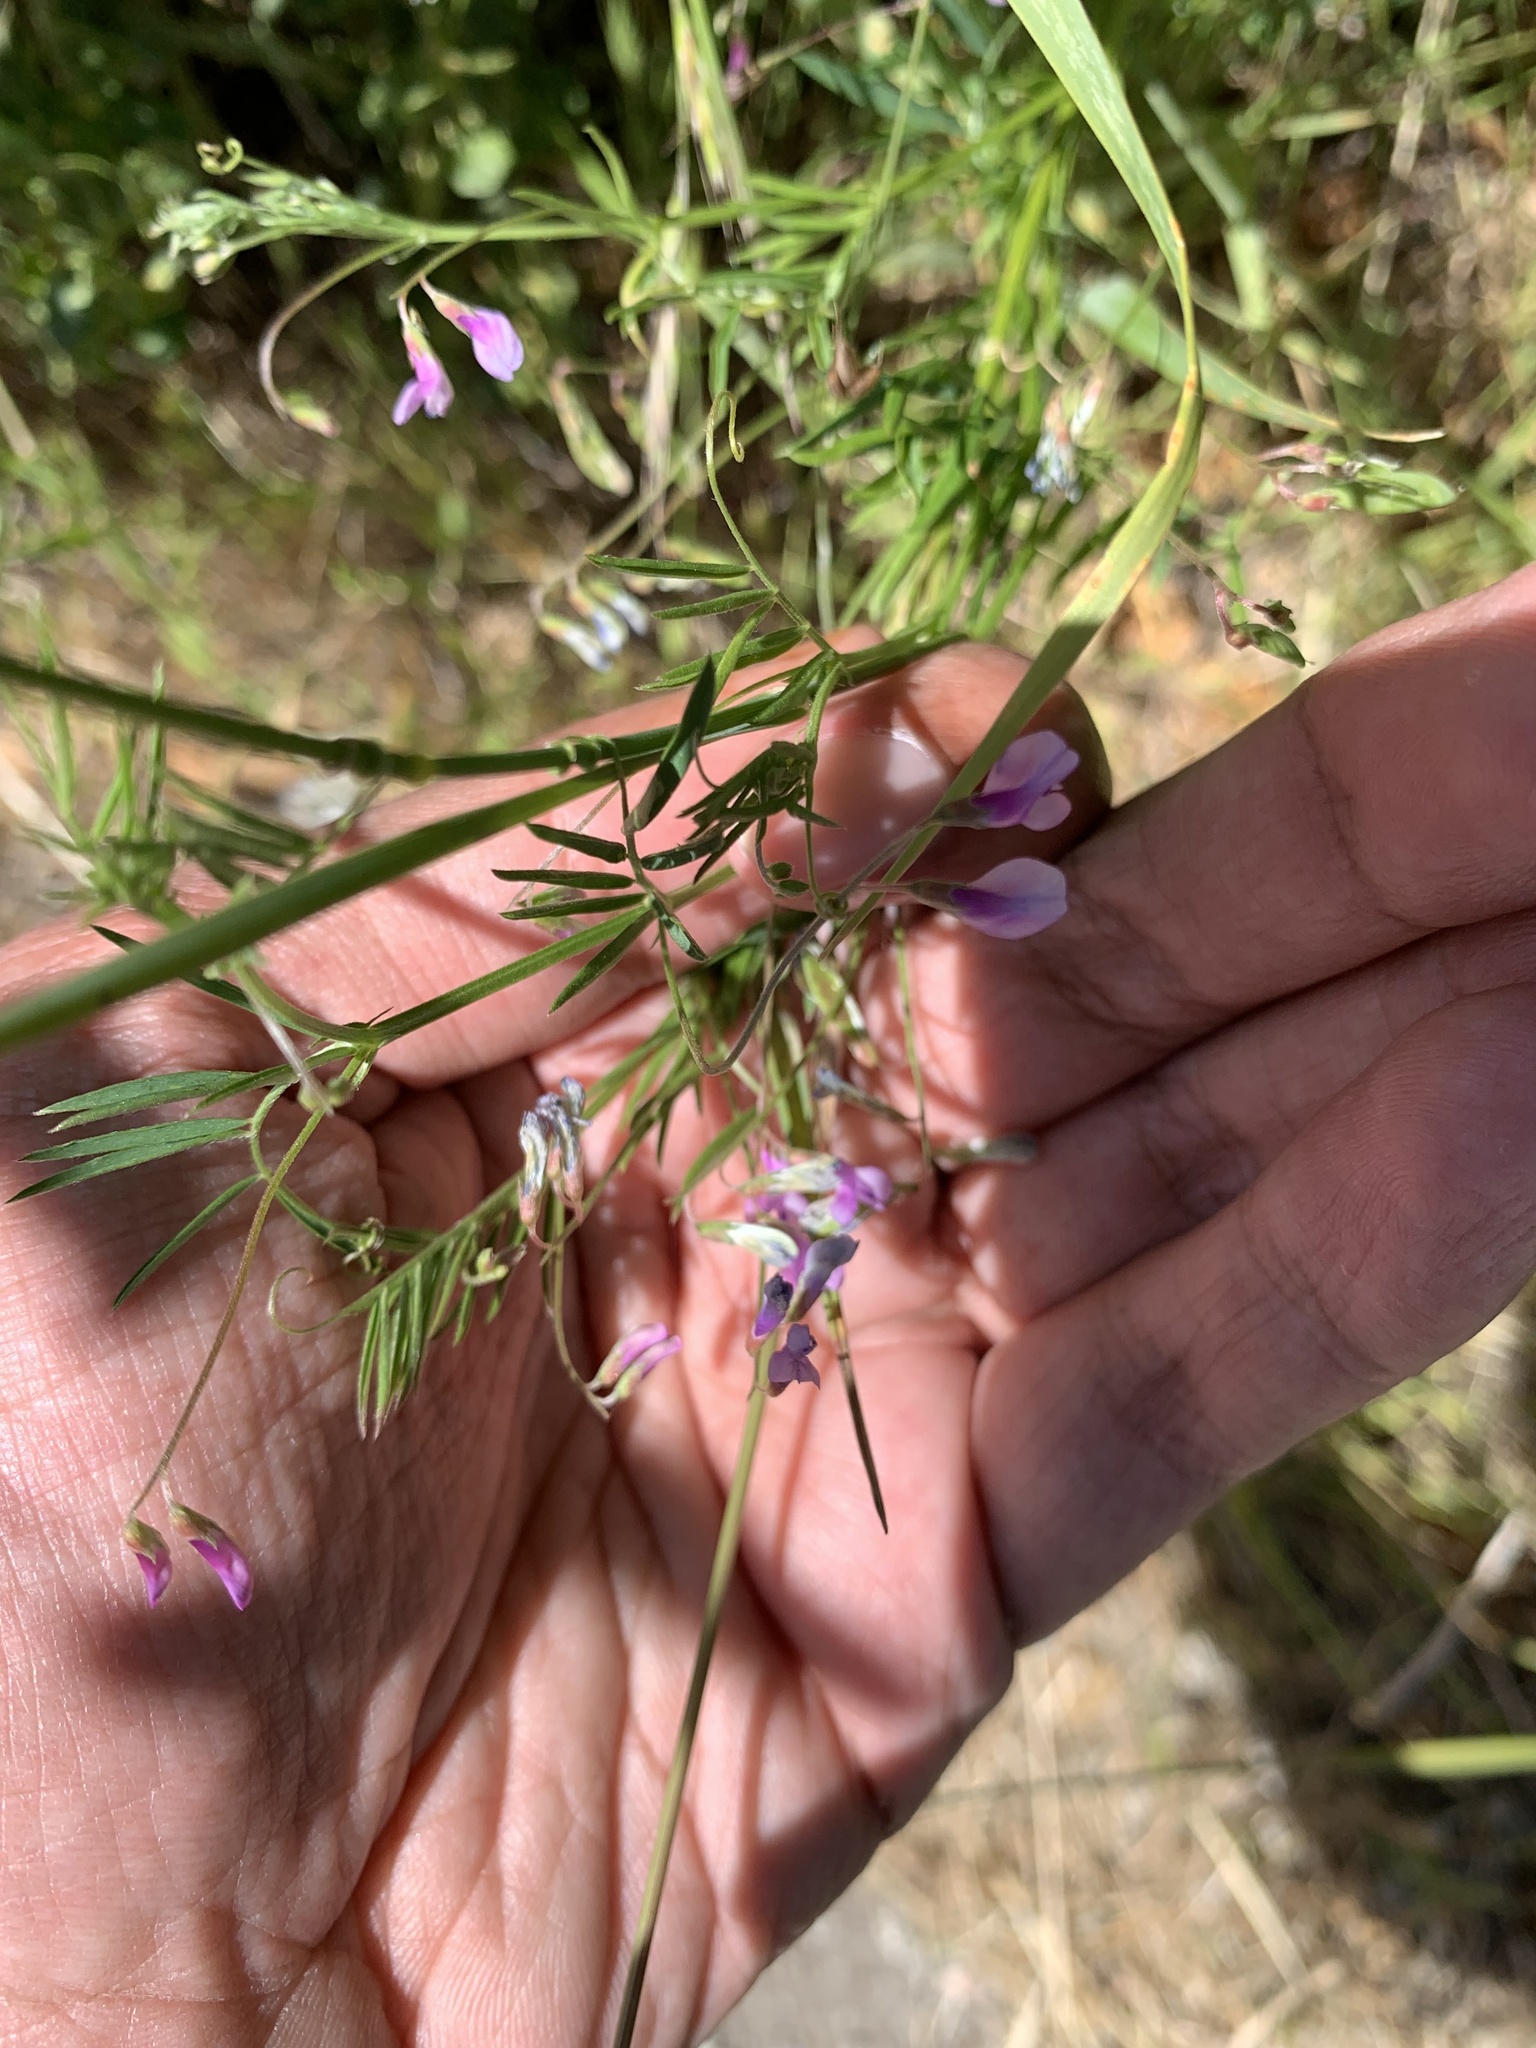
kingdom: Plantae
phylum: Tracheophyta
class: Magnoliopsida
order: Fabales
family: Fabaceae
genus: Vicia
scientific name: Vicia tetrasperma
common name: Smooth tare
